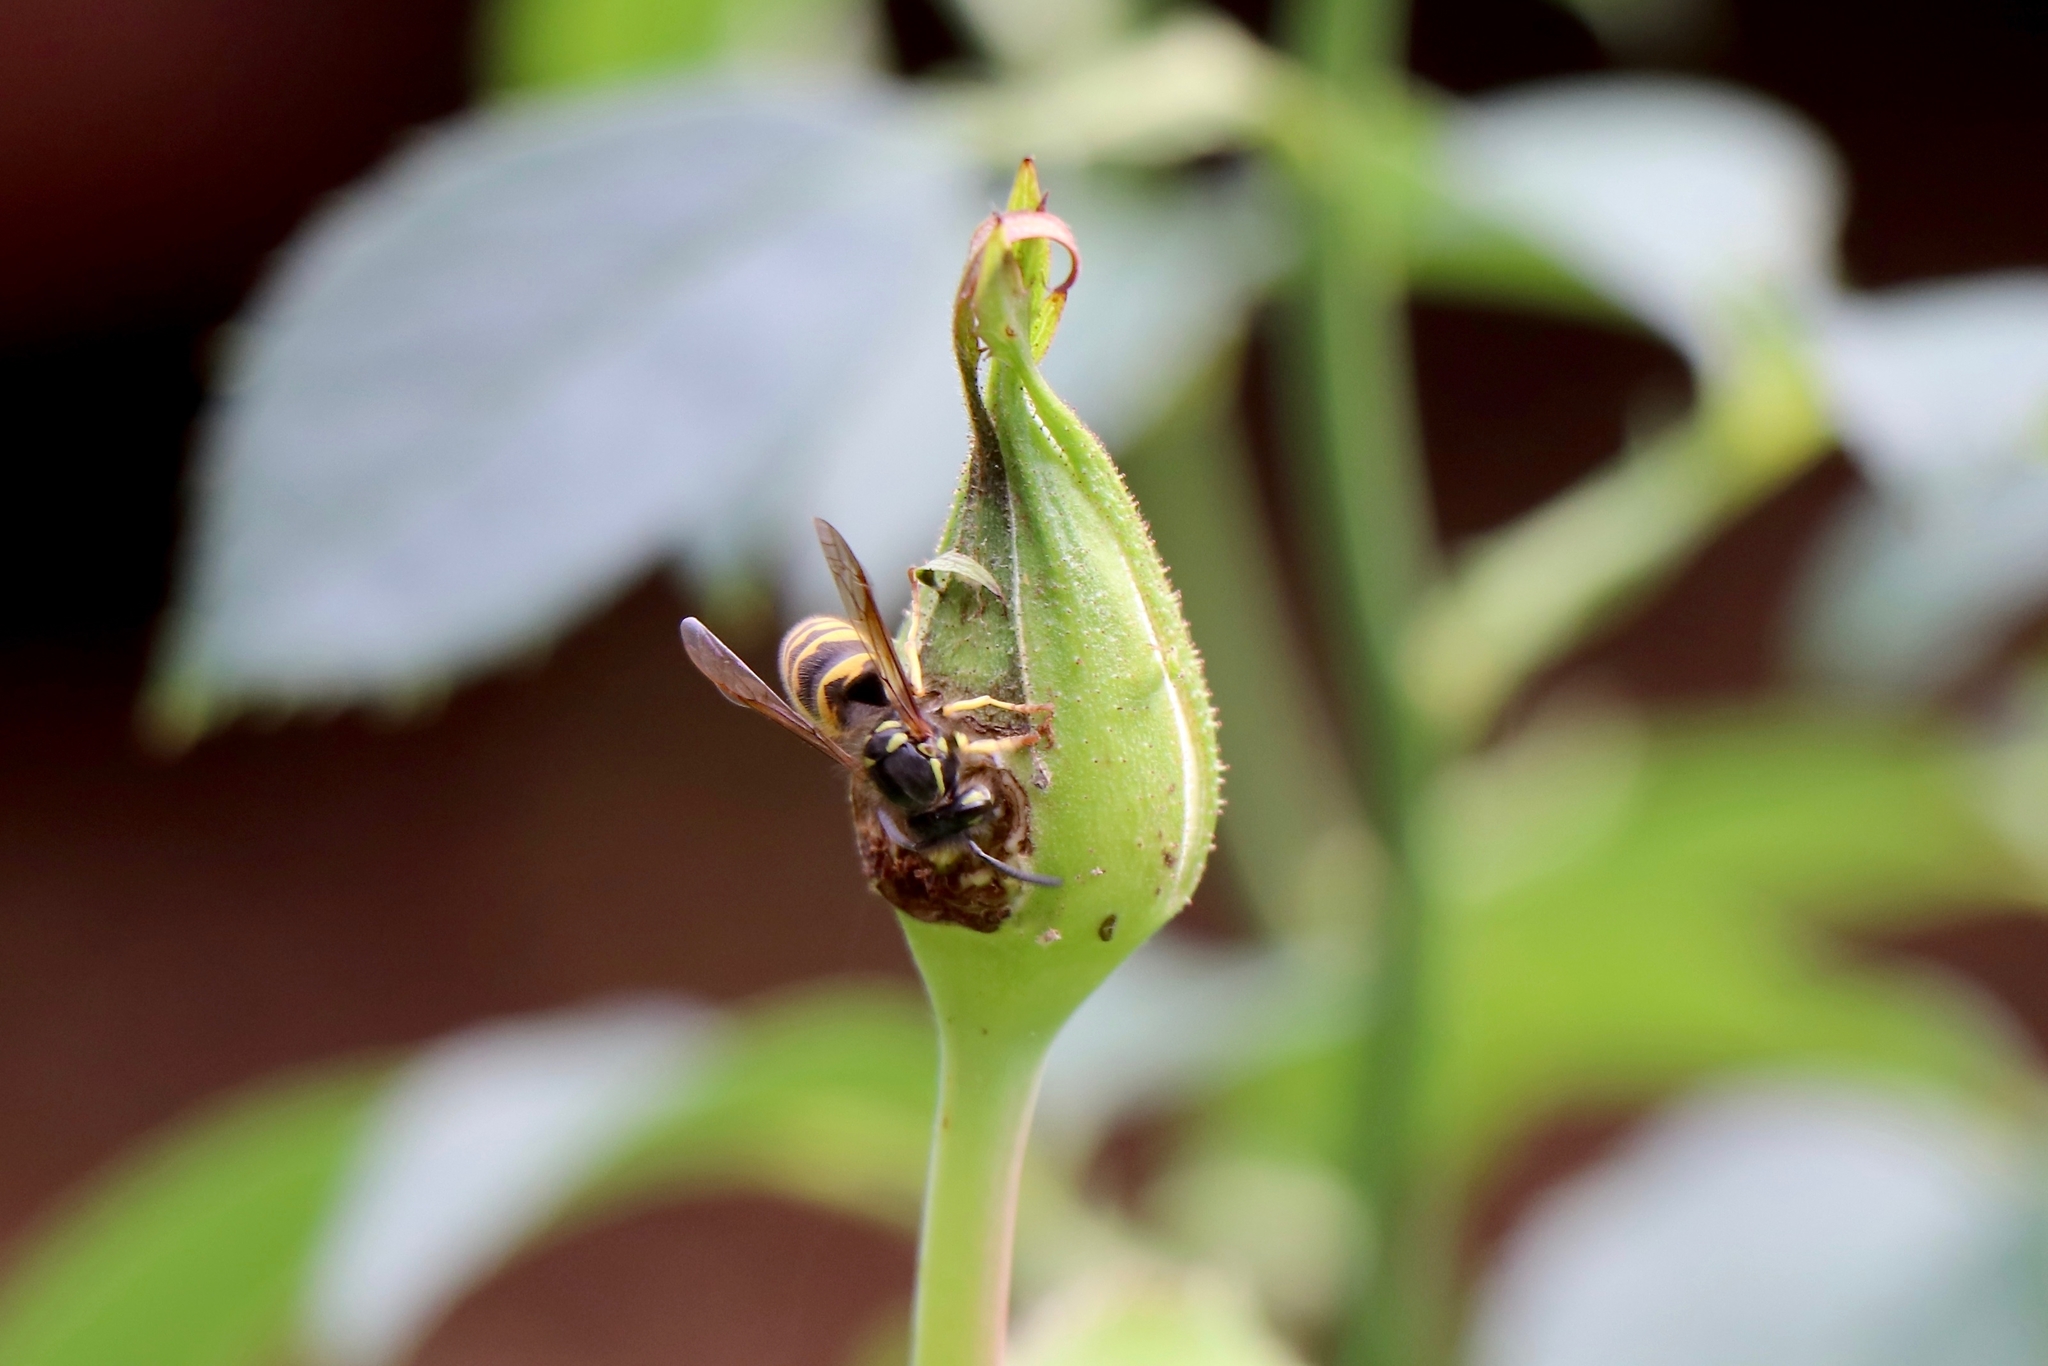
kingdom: Animalia
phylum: Arthropoda
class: Insecta
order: Hymenoptera
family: Vespidae
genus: Vespula
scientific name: Vespula alascensis
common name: Alaska yellowjacket
